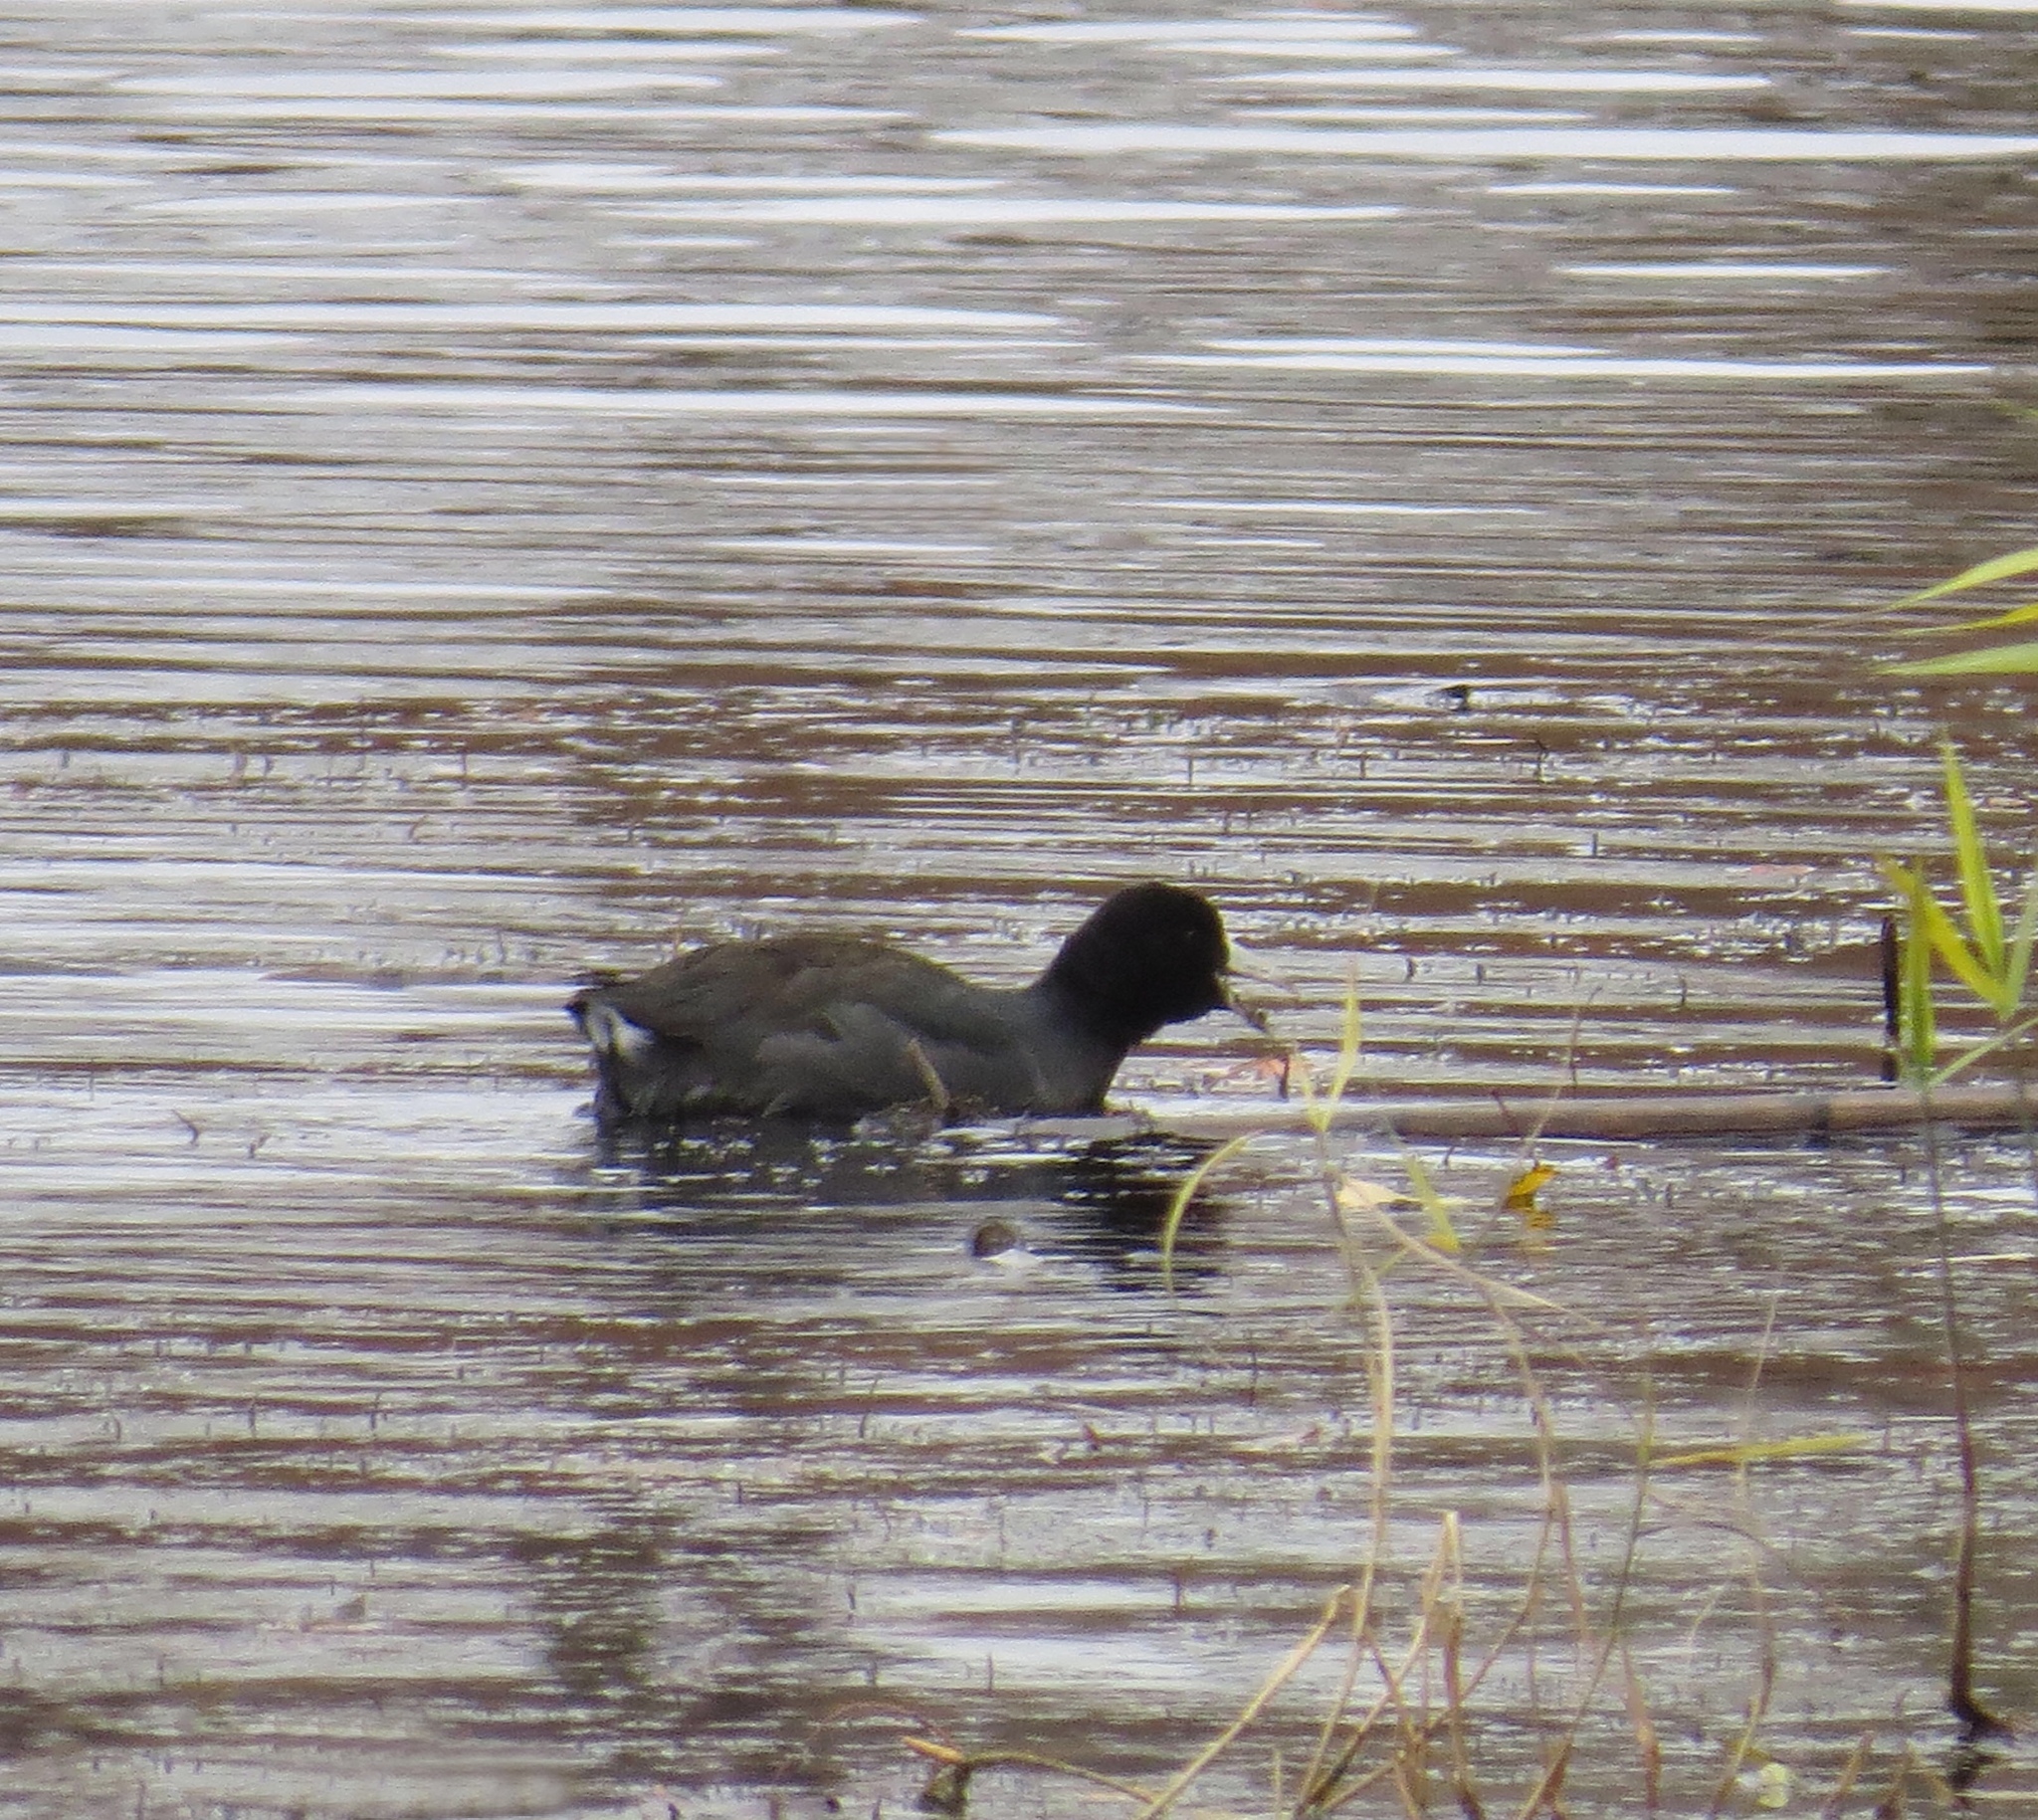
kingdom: Animalia
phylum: Chordata
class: Aves
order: Gruiformes
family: Rallidae
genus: Fulica
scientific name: Fulica americana
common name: American coot
